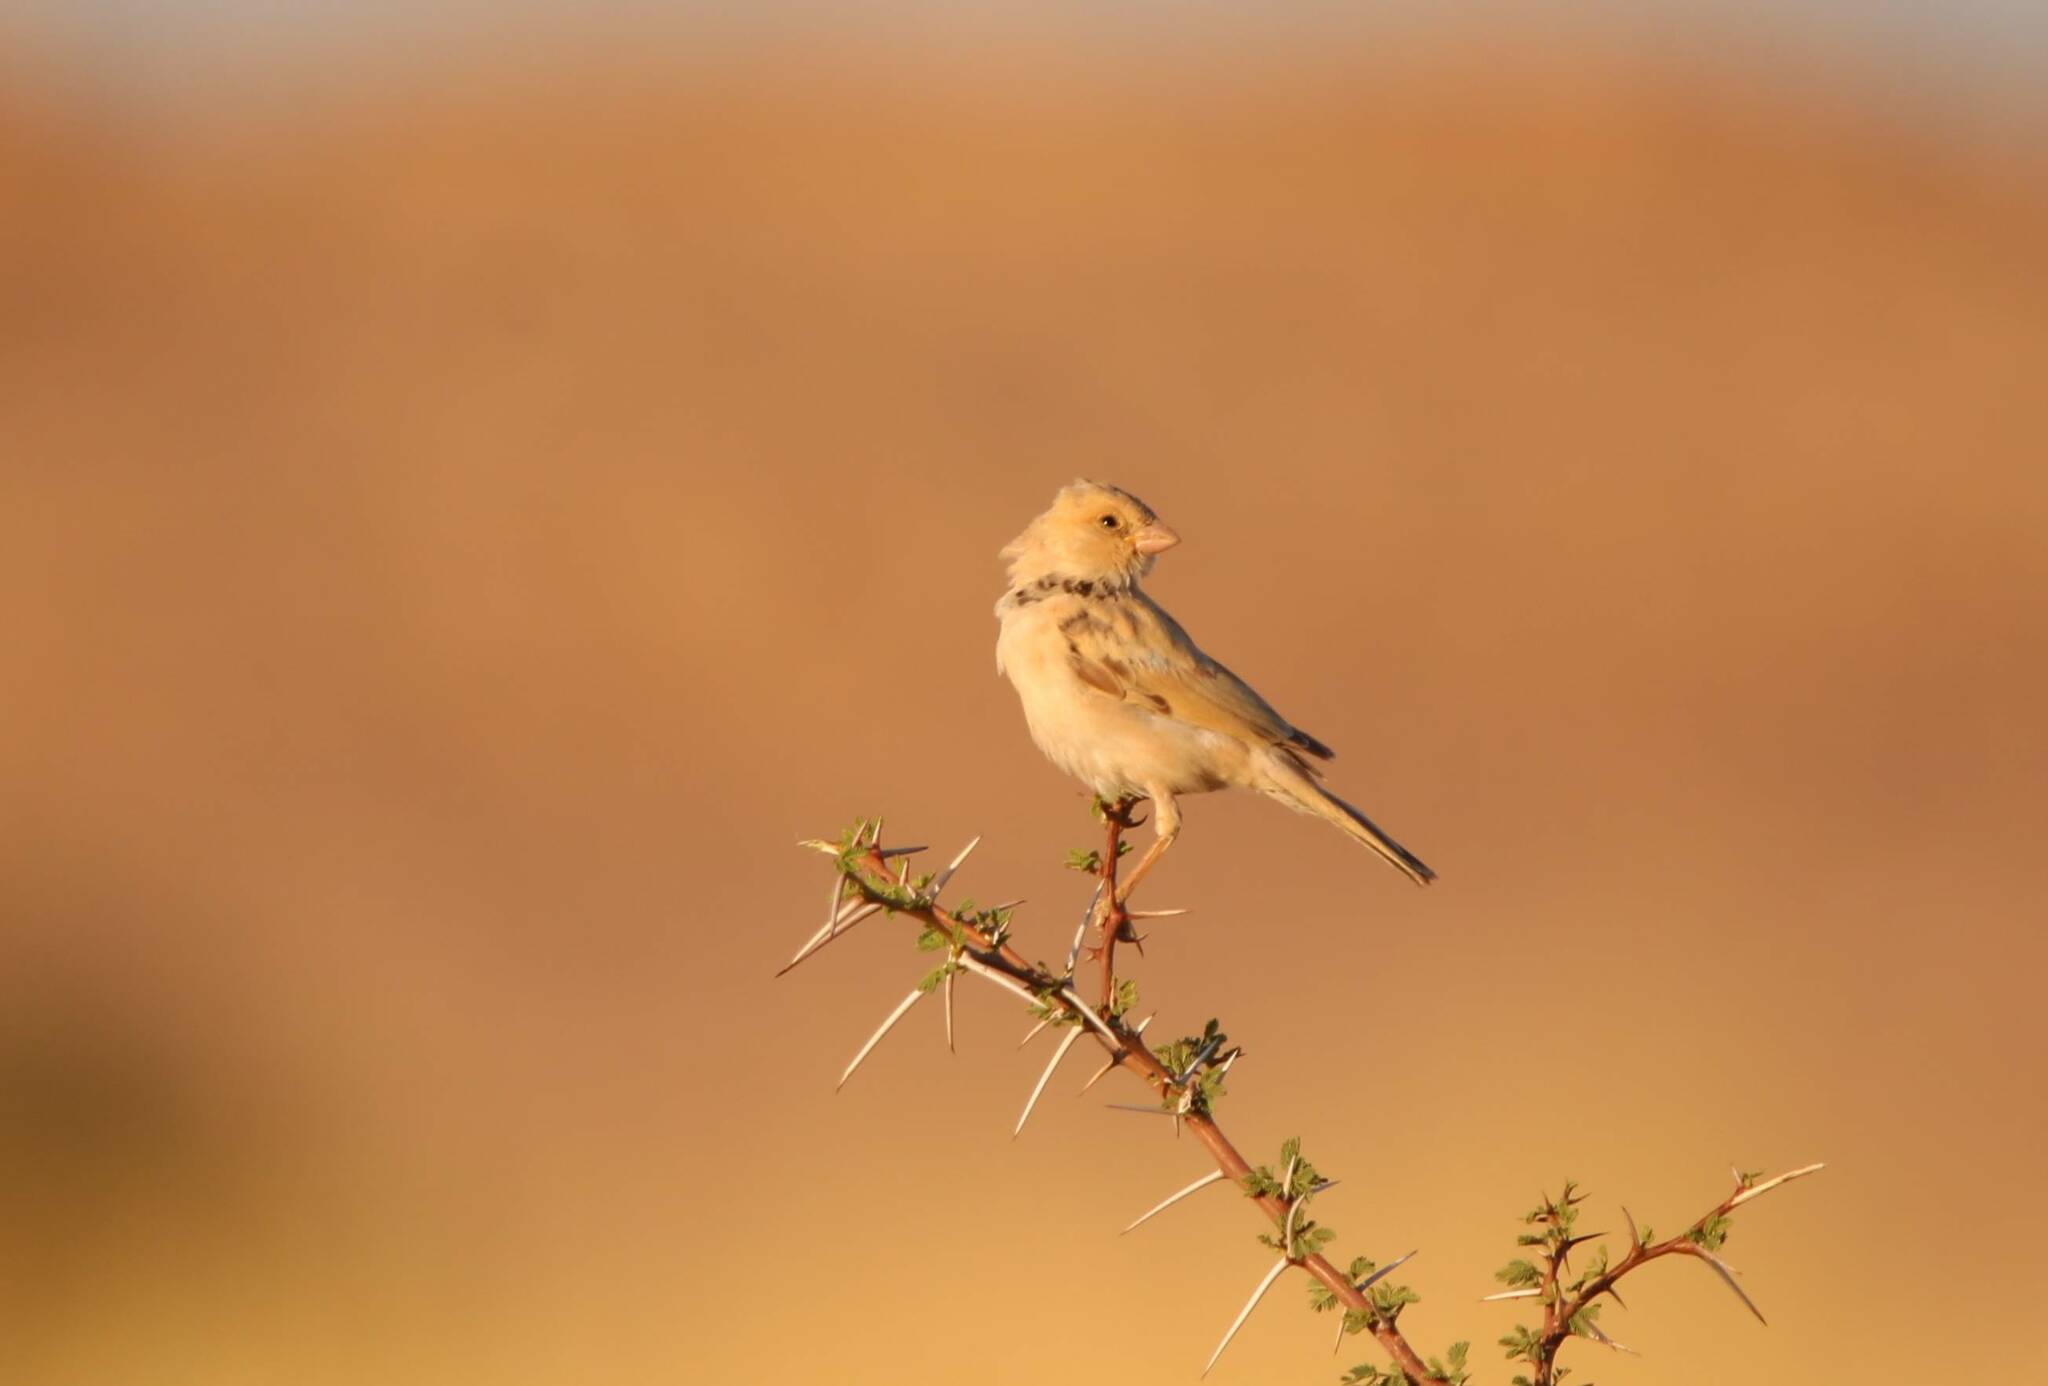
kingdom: Animalia
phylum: Chordata
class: Aves
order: Passeriformes
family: Passeridae
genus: Passer
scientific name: Passer simplex
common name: Desert sparrow
